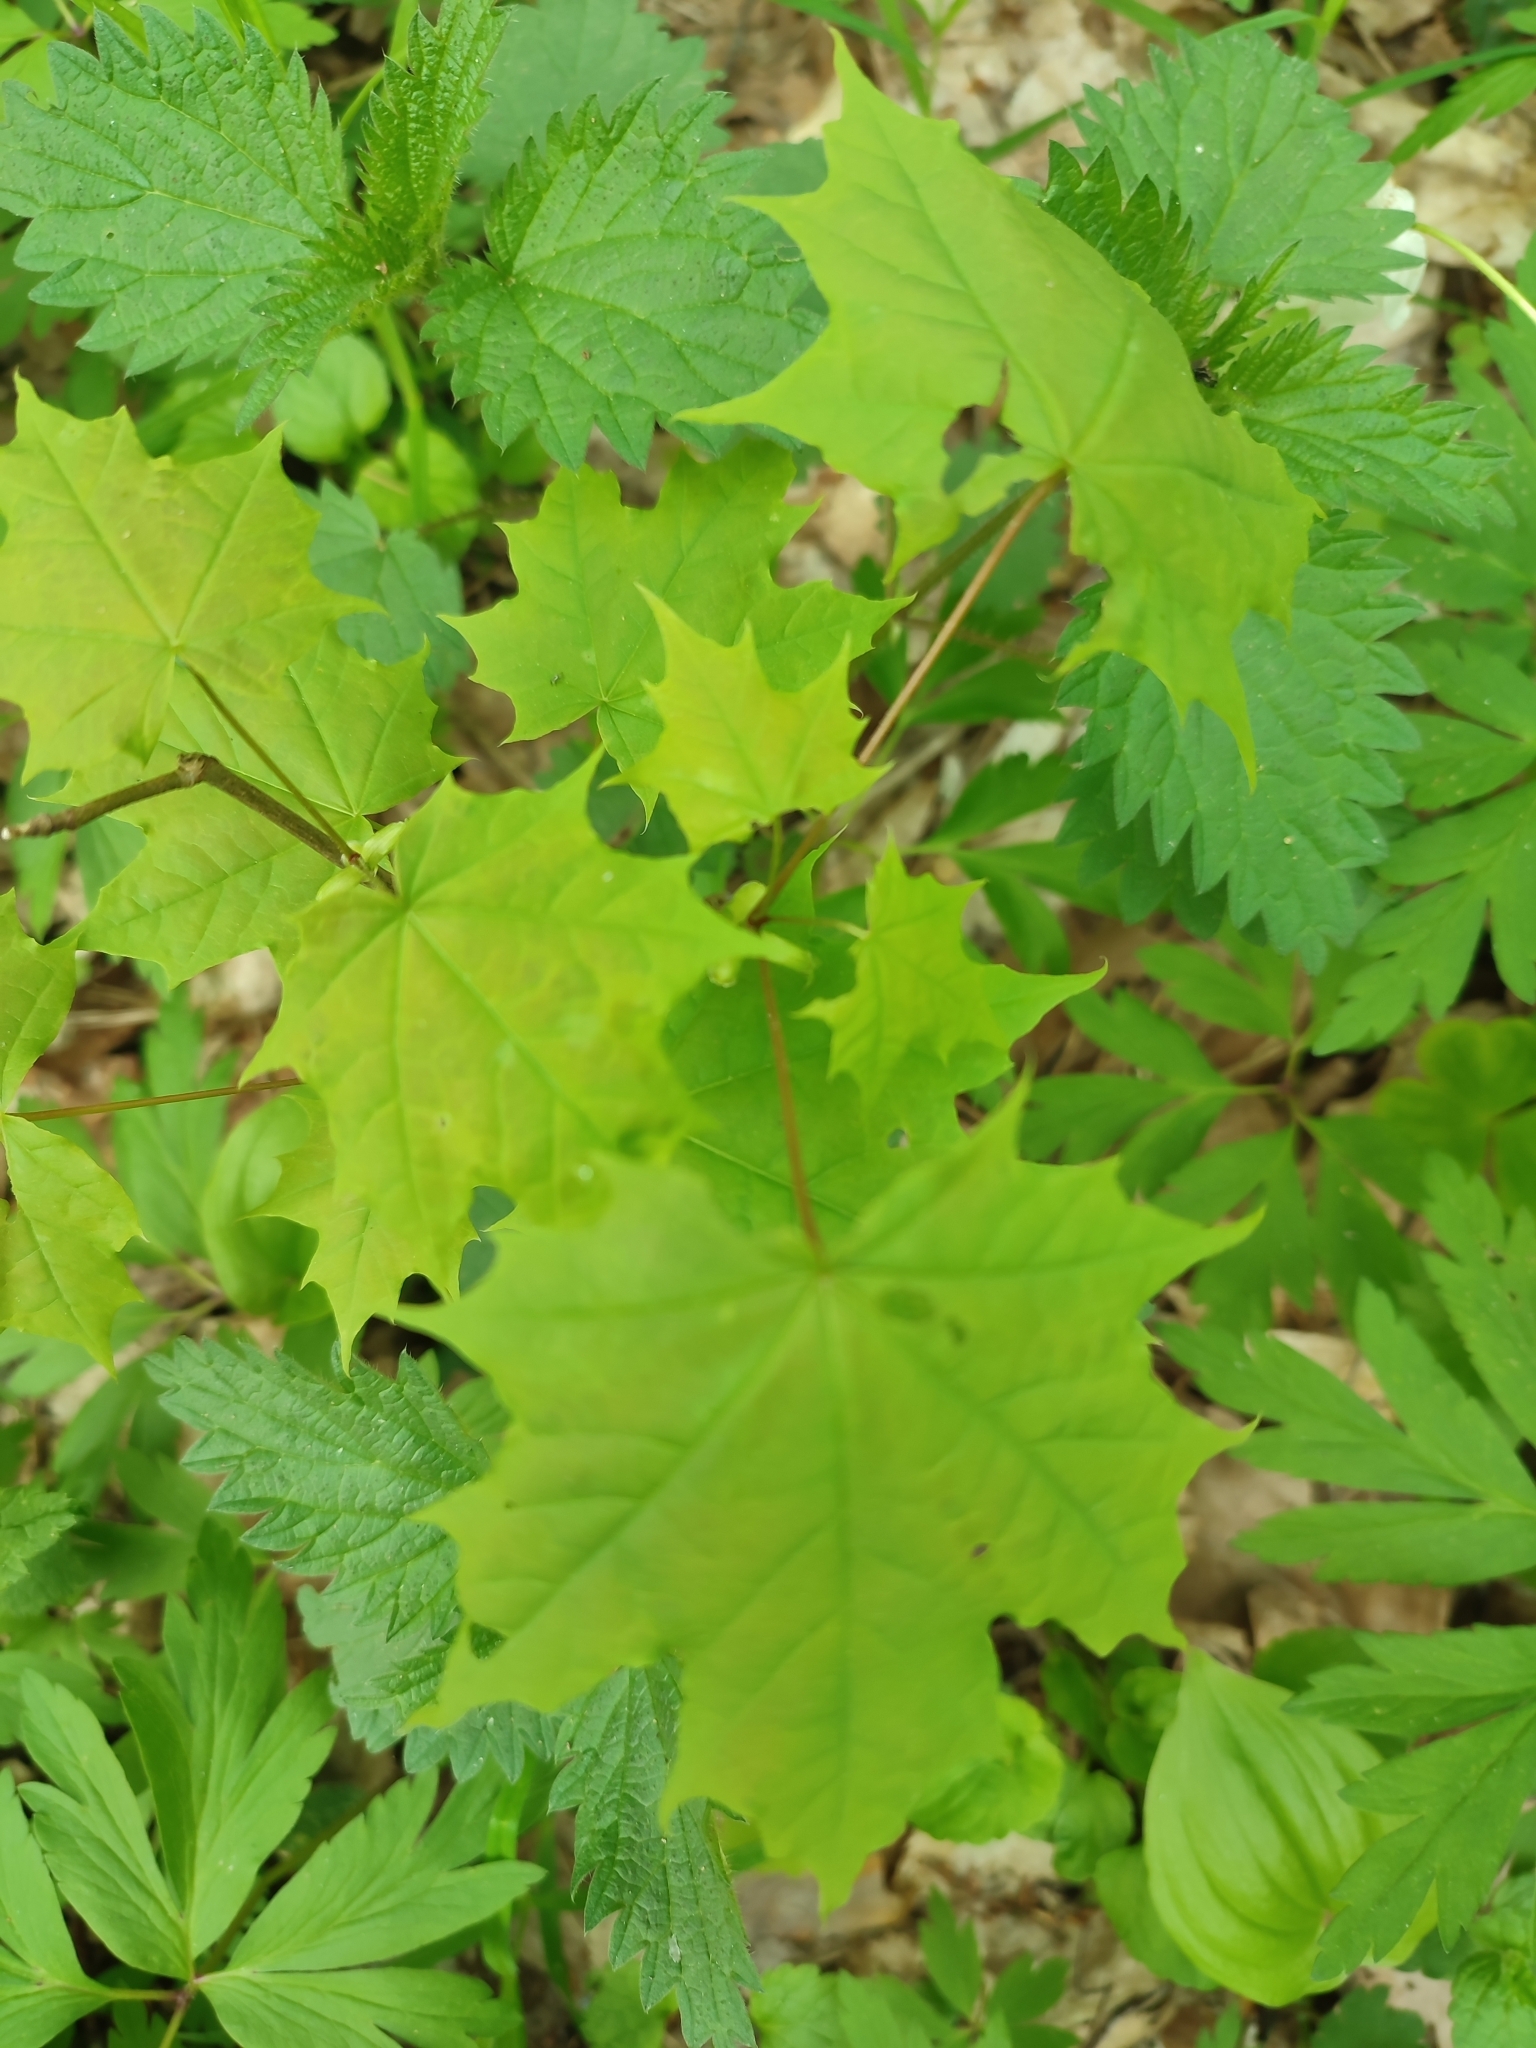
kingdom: Plantae
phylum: Tracheophyta
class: Magnoliopsida
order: Sapindales
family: Sapindaceae
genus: Acer
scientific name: Acer platanoides
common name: Norway maple
